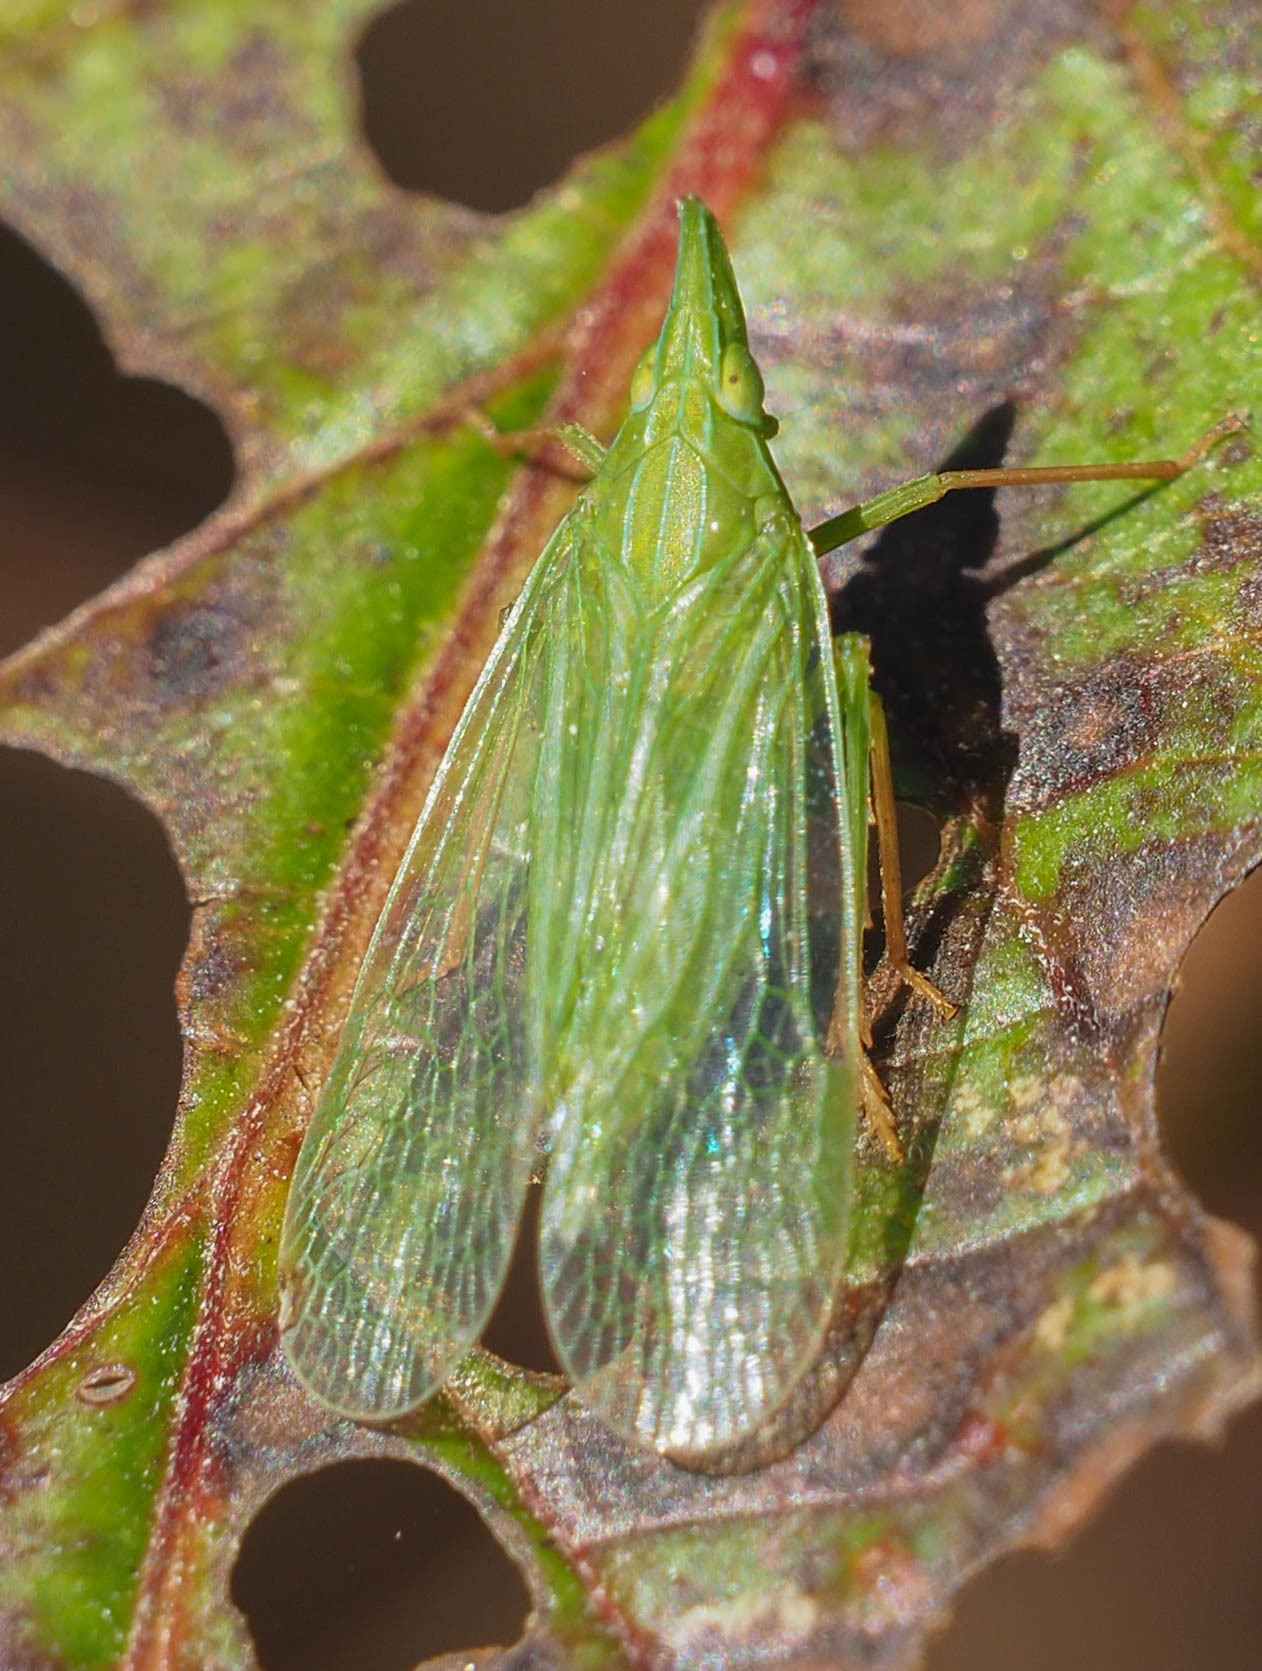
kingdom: Animalia
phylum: Arthropoda
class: Insecta
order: Hemiptera
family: Dictyopharidae
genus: Rhynchomitra
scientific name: Rhynchomitra microrhina
